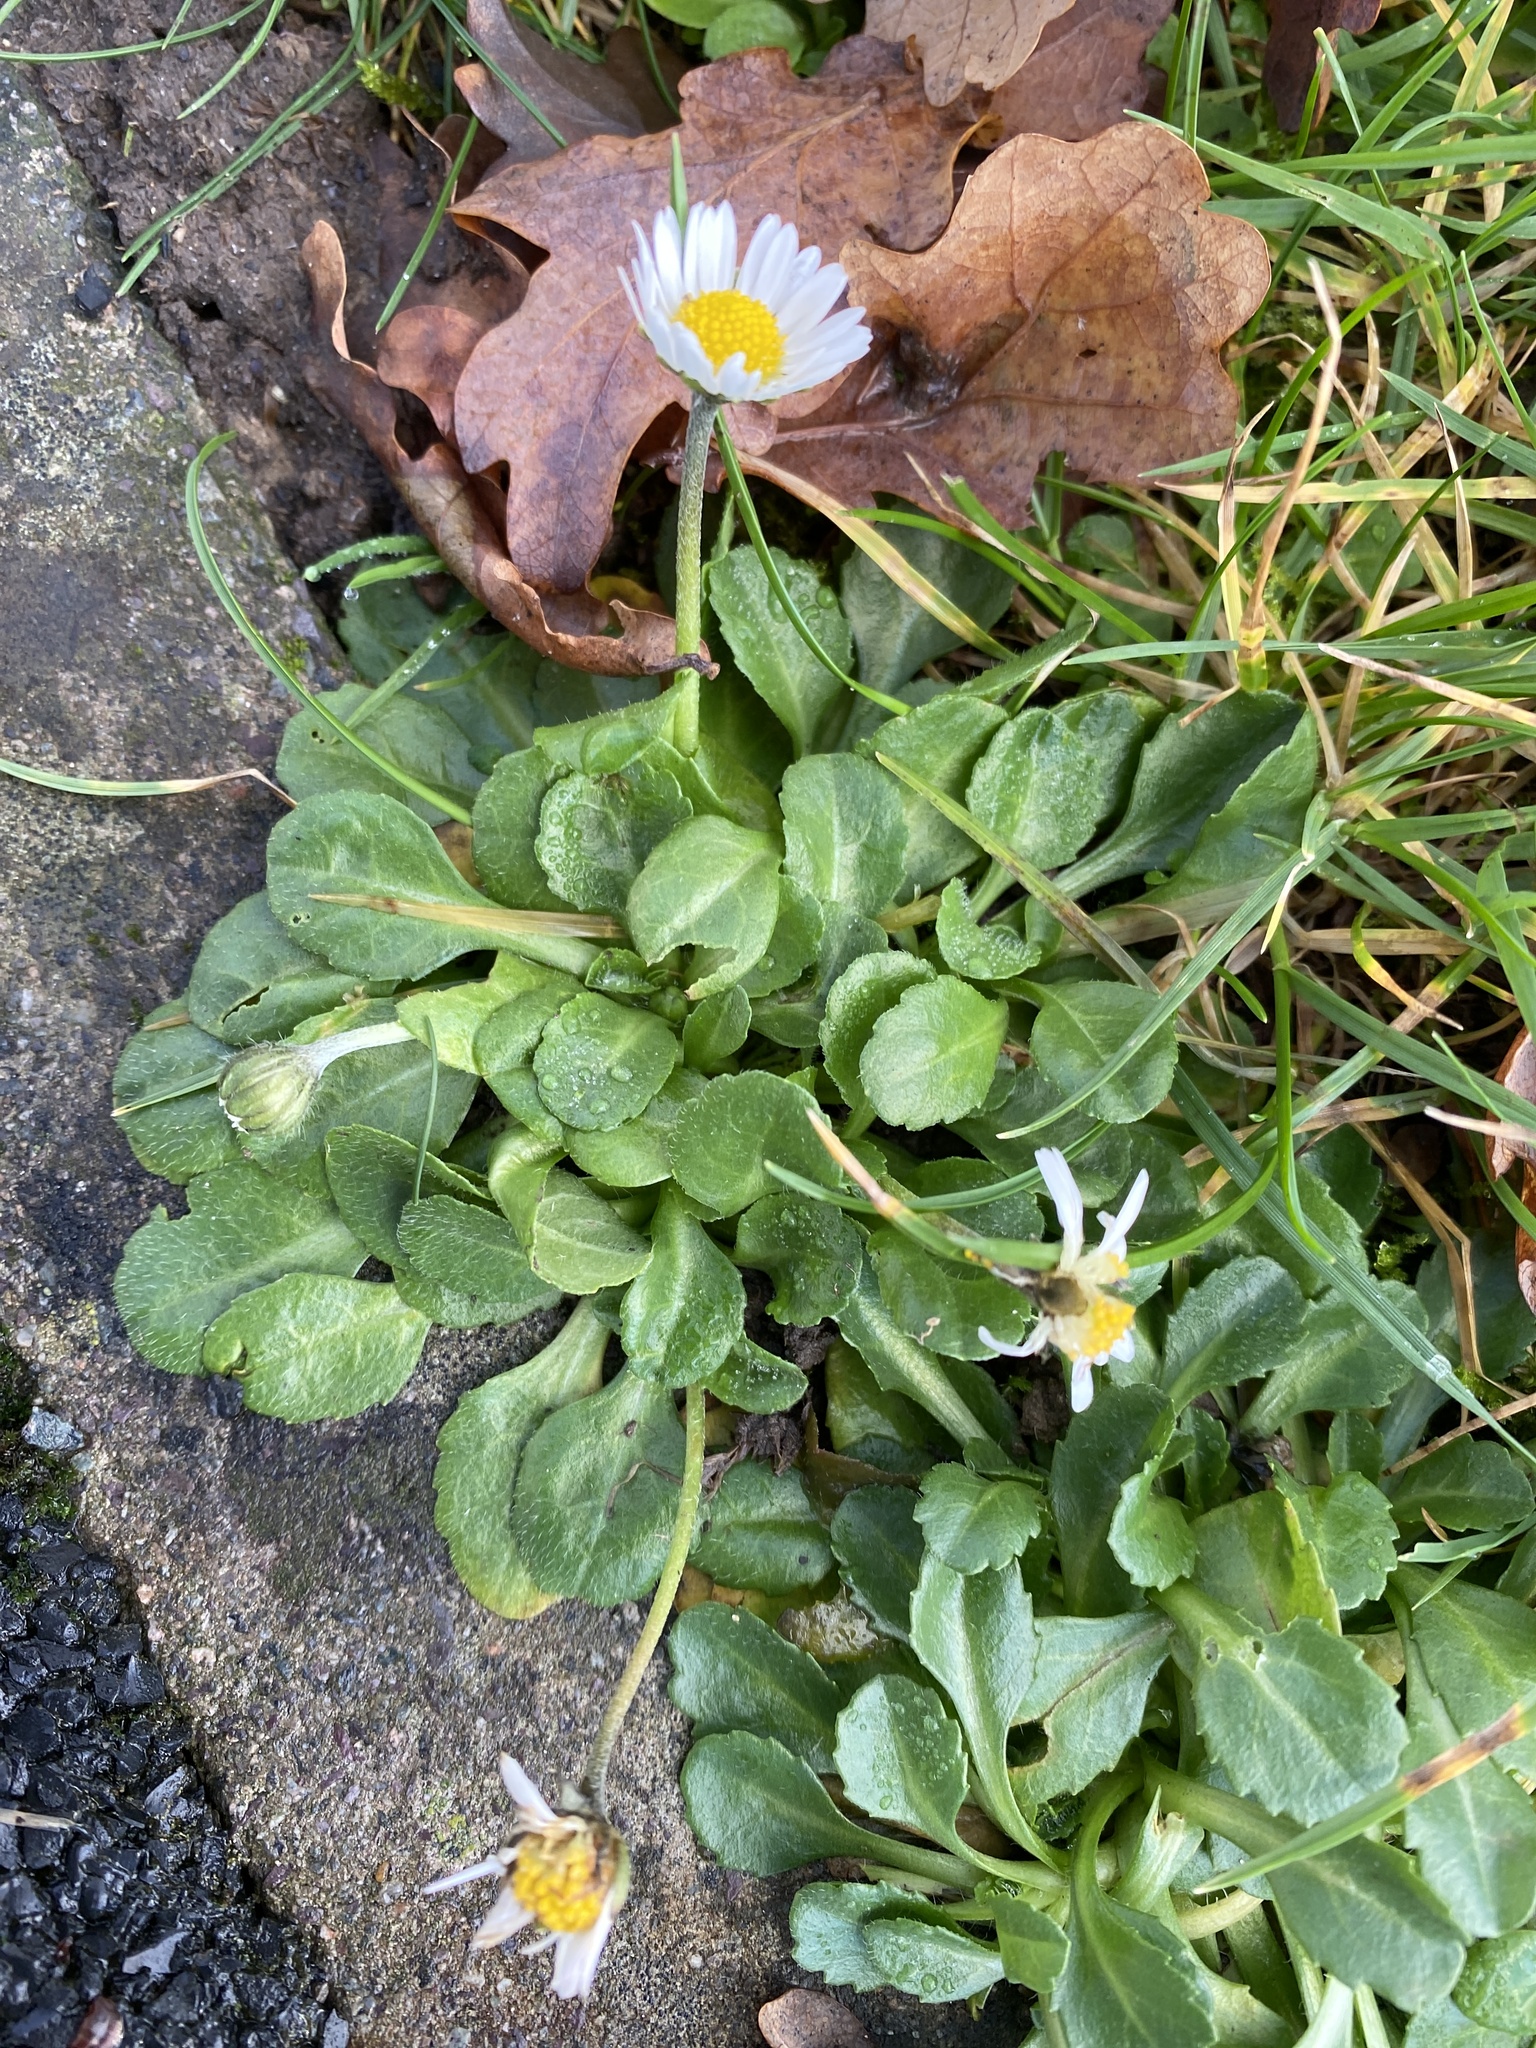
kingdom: Plantae
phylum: Tracheophyta
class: Magnoliopsida
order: Asterales
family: Asteraceae
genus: Bellis
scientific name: Bellis perennis
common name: Lawndaisy
